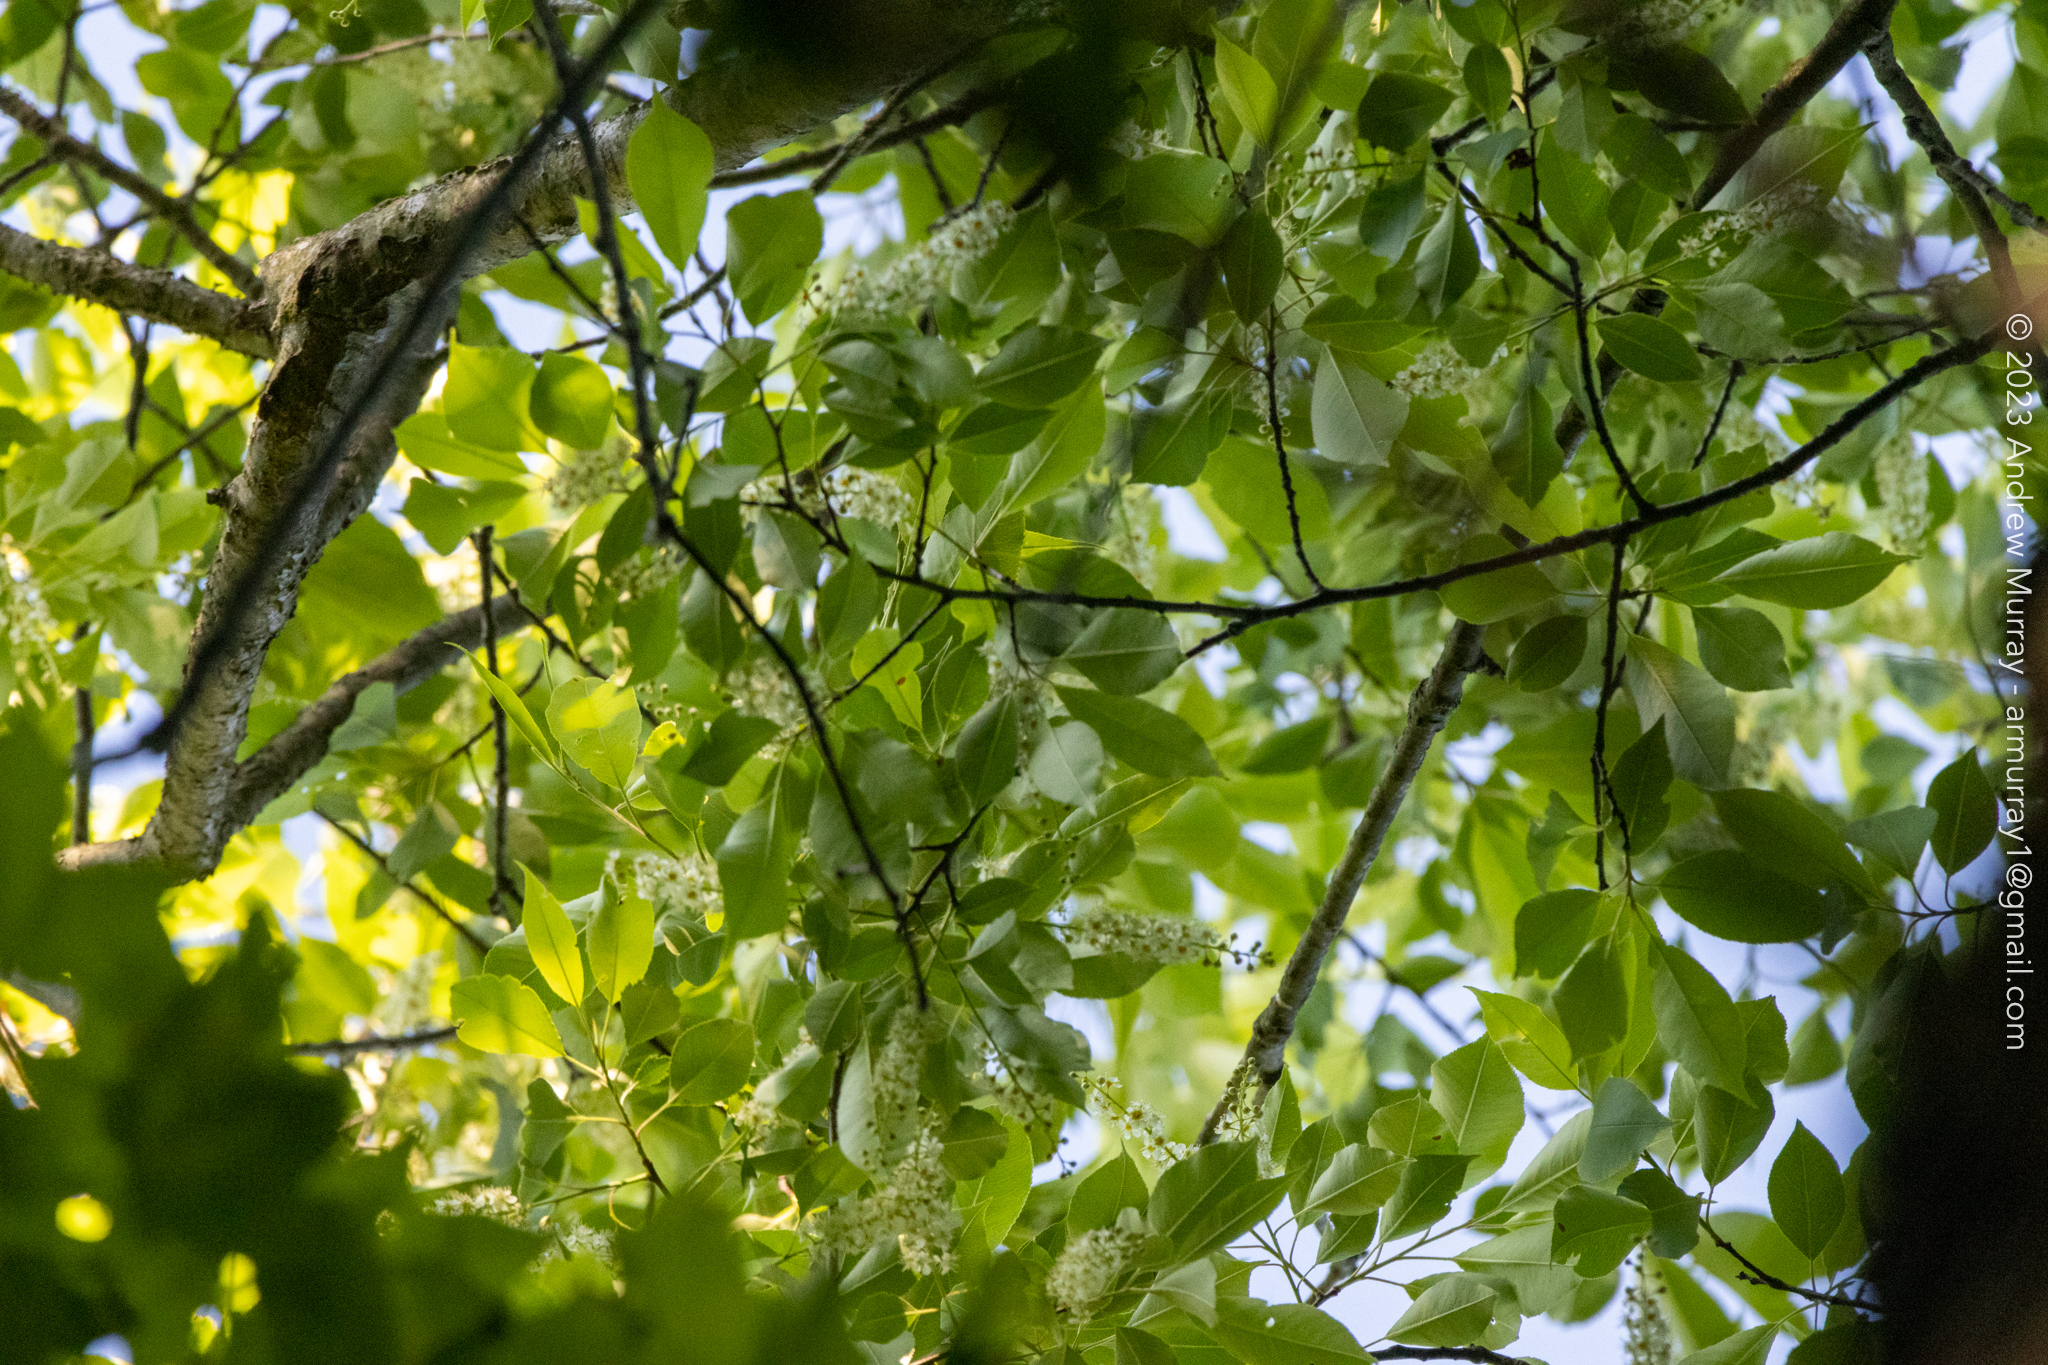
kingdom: Plantae
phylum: Tracheophyta
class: Magnoliopsida
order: Rosales
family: Rosaceae
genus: Prunus
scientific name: Prunus serotina
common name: Black cherry
